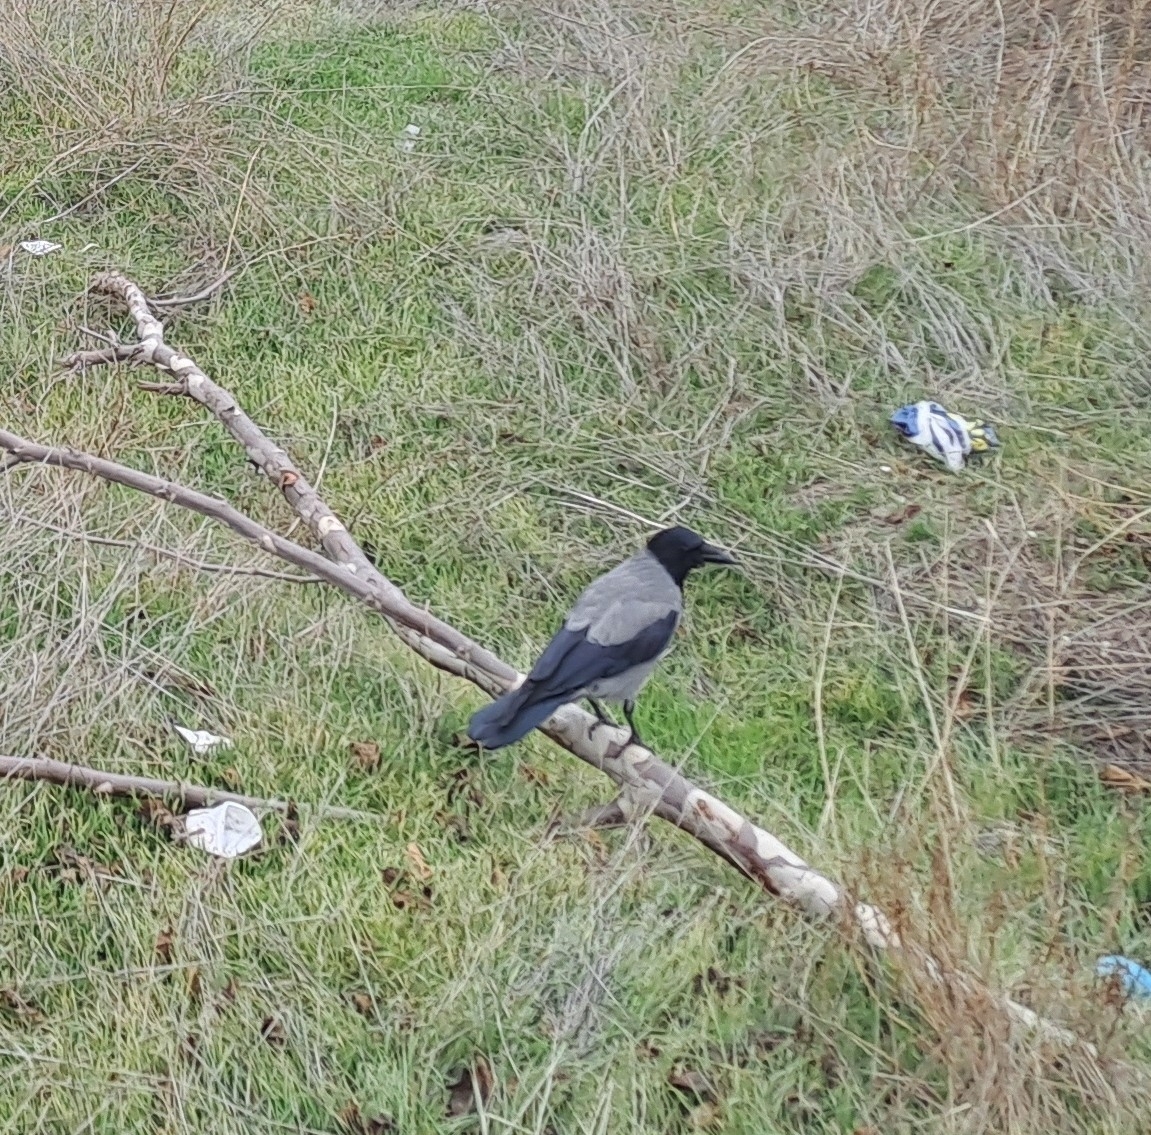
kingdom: Animalia
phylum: Chordata
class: Aves
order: Passeriformes
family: Corvidae
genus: Corvus
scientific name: Corvus cornix
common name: Hooded crow
